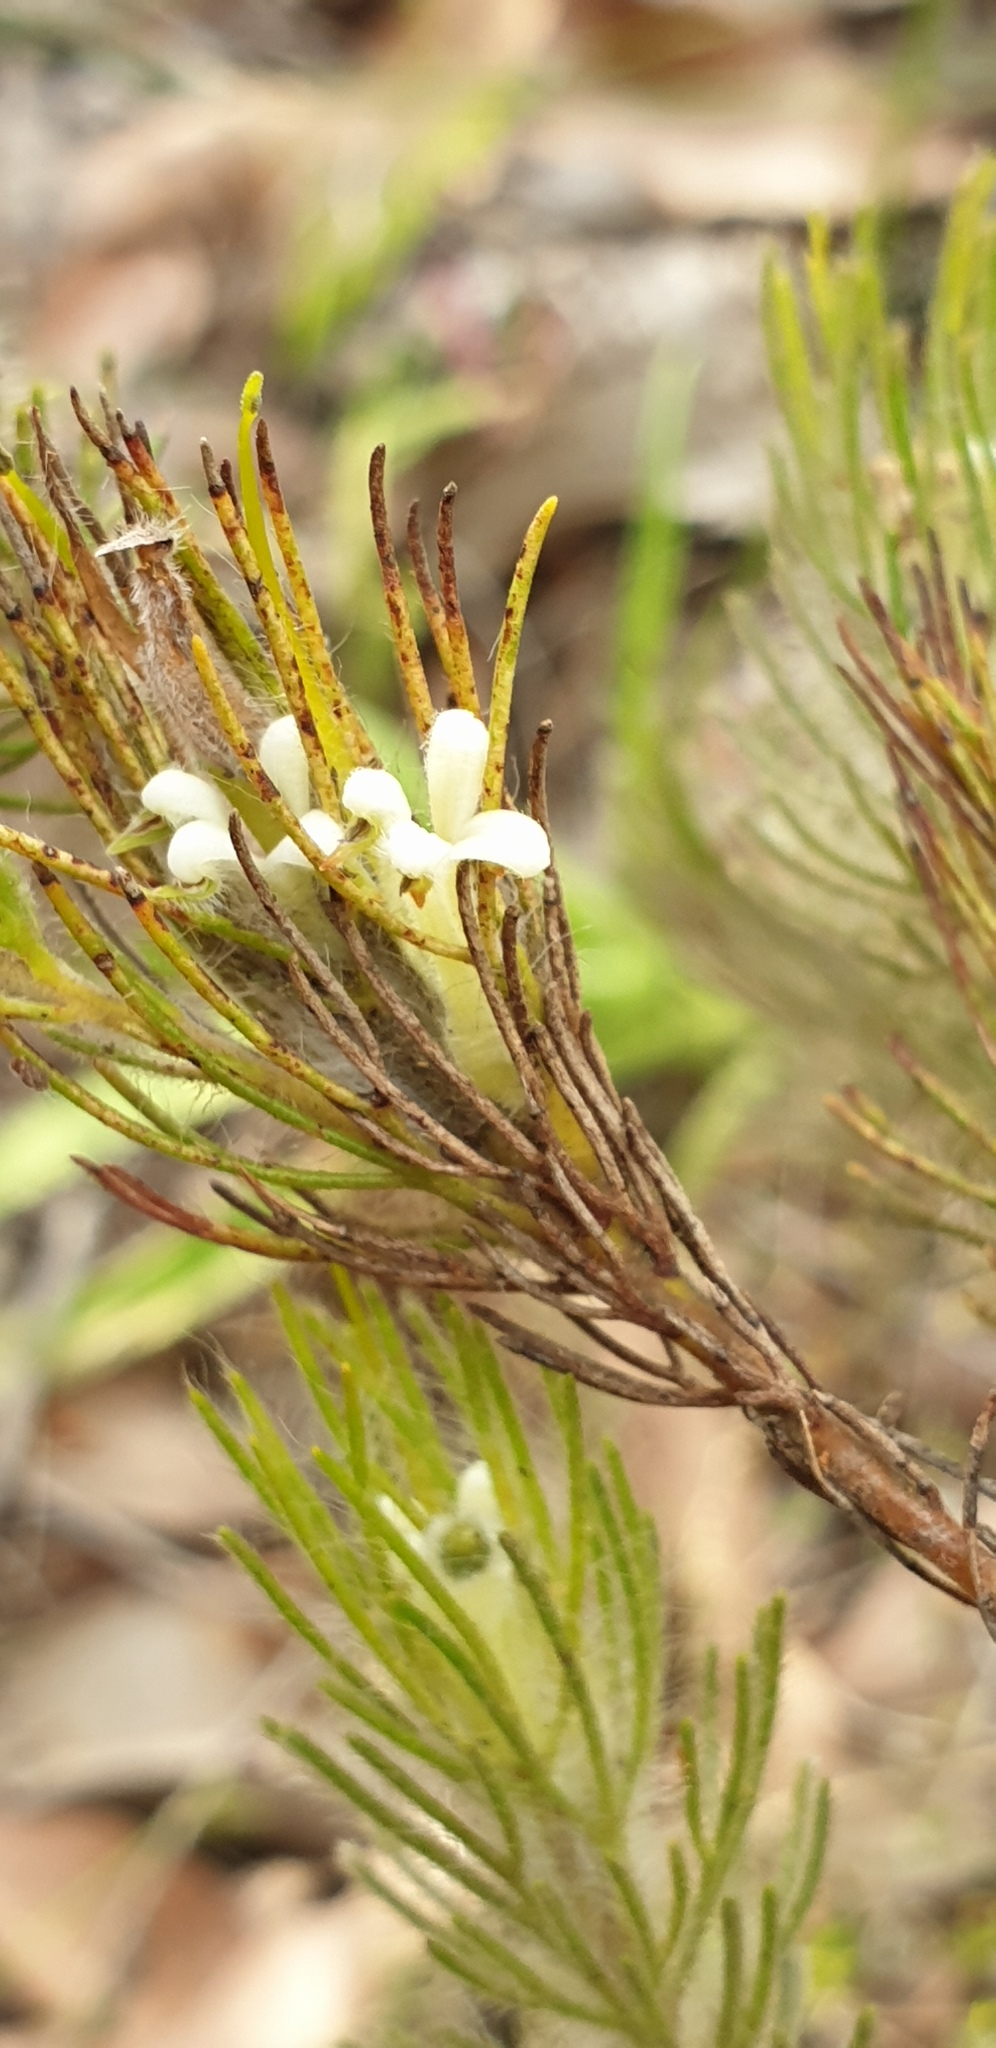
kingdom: Plantae
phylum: Tracheophyta
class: Magnoliopsida
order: Proteales
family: Proteaceae
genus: Adenanthos
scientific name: Adenanthos terminalis
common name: Yellow gland-flower
